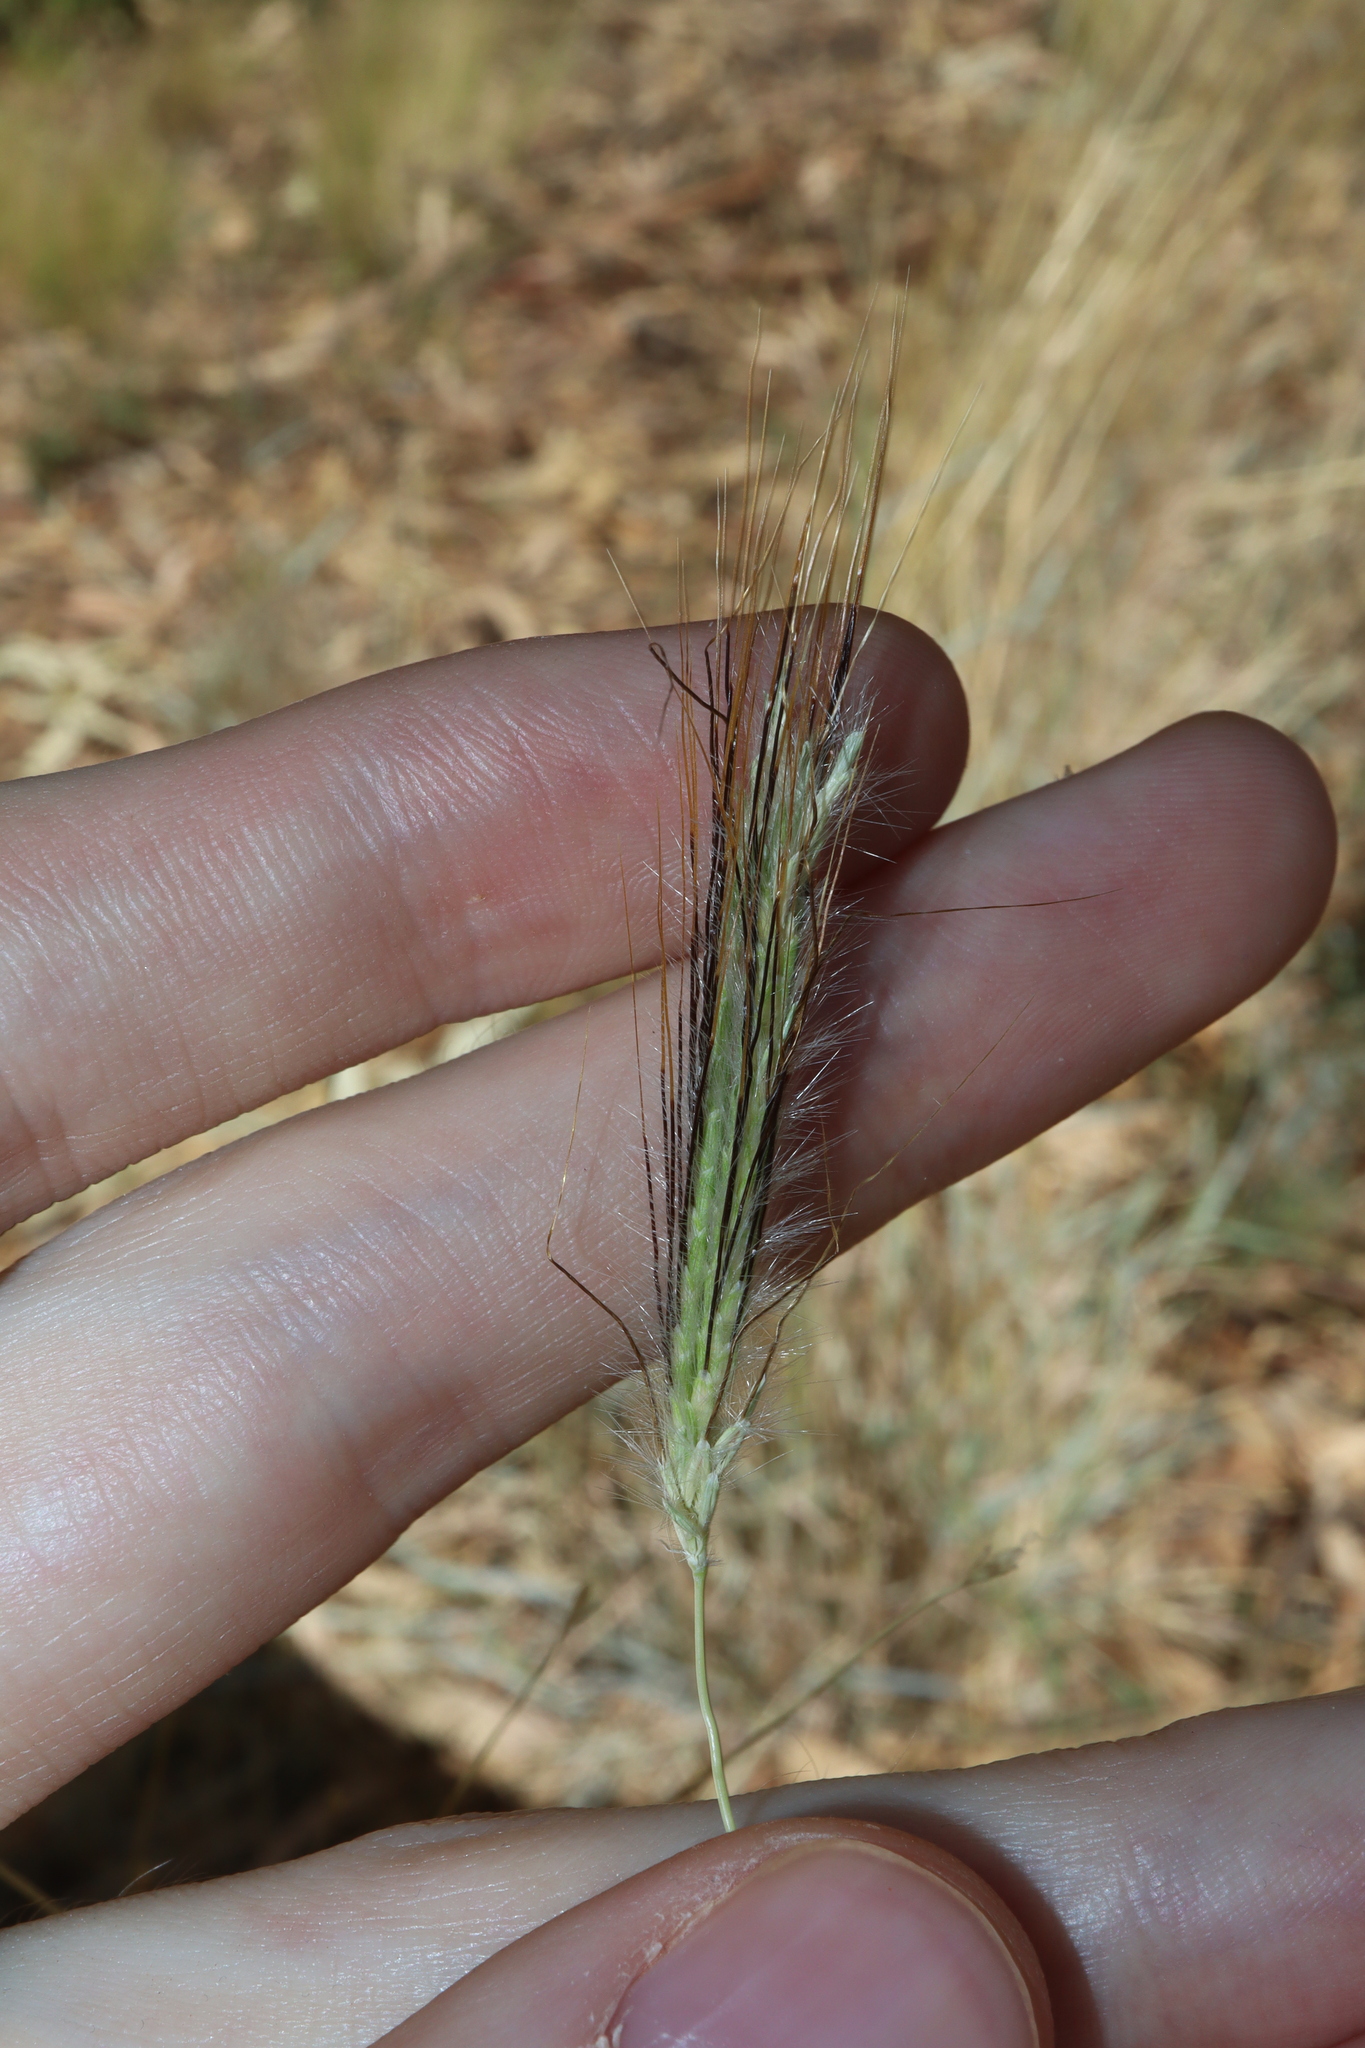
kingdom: Plantae
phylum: Tracheophyta
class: Liliopsida
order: Poales
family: Poaceae
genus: Dichanthium
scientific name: Dichanthium sericeum
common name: Silky bluestem
